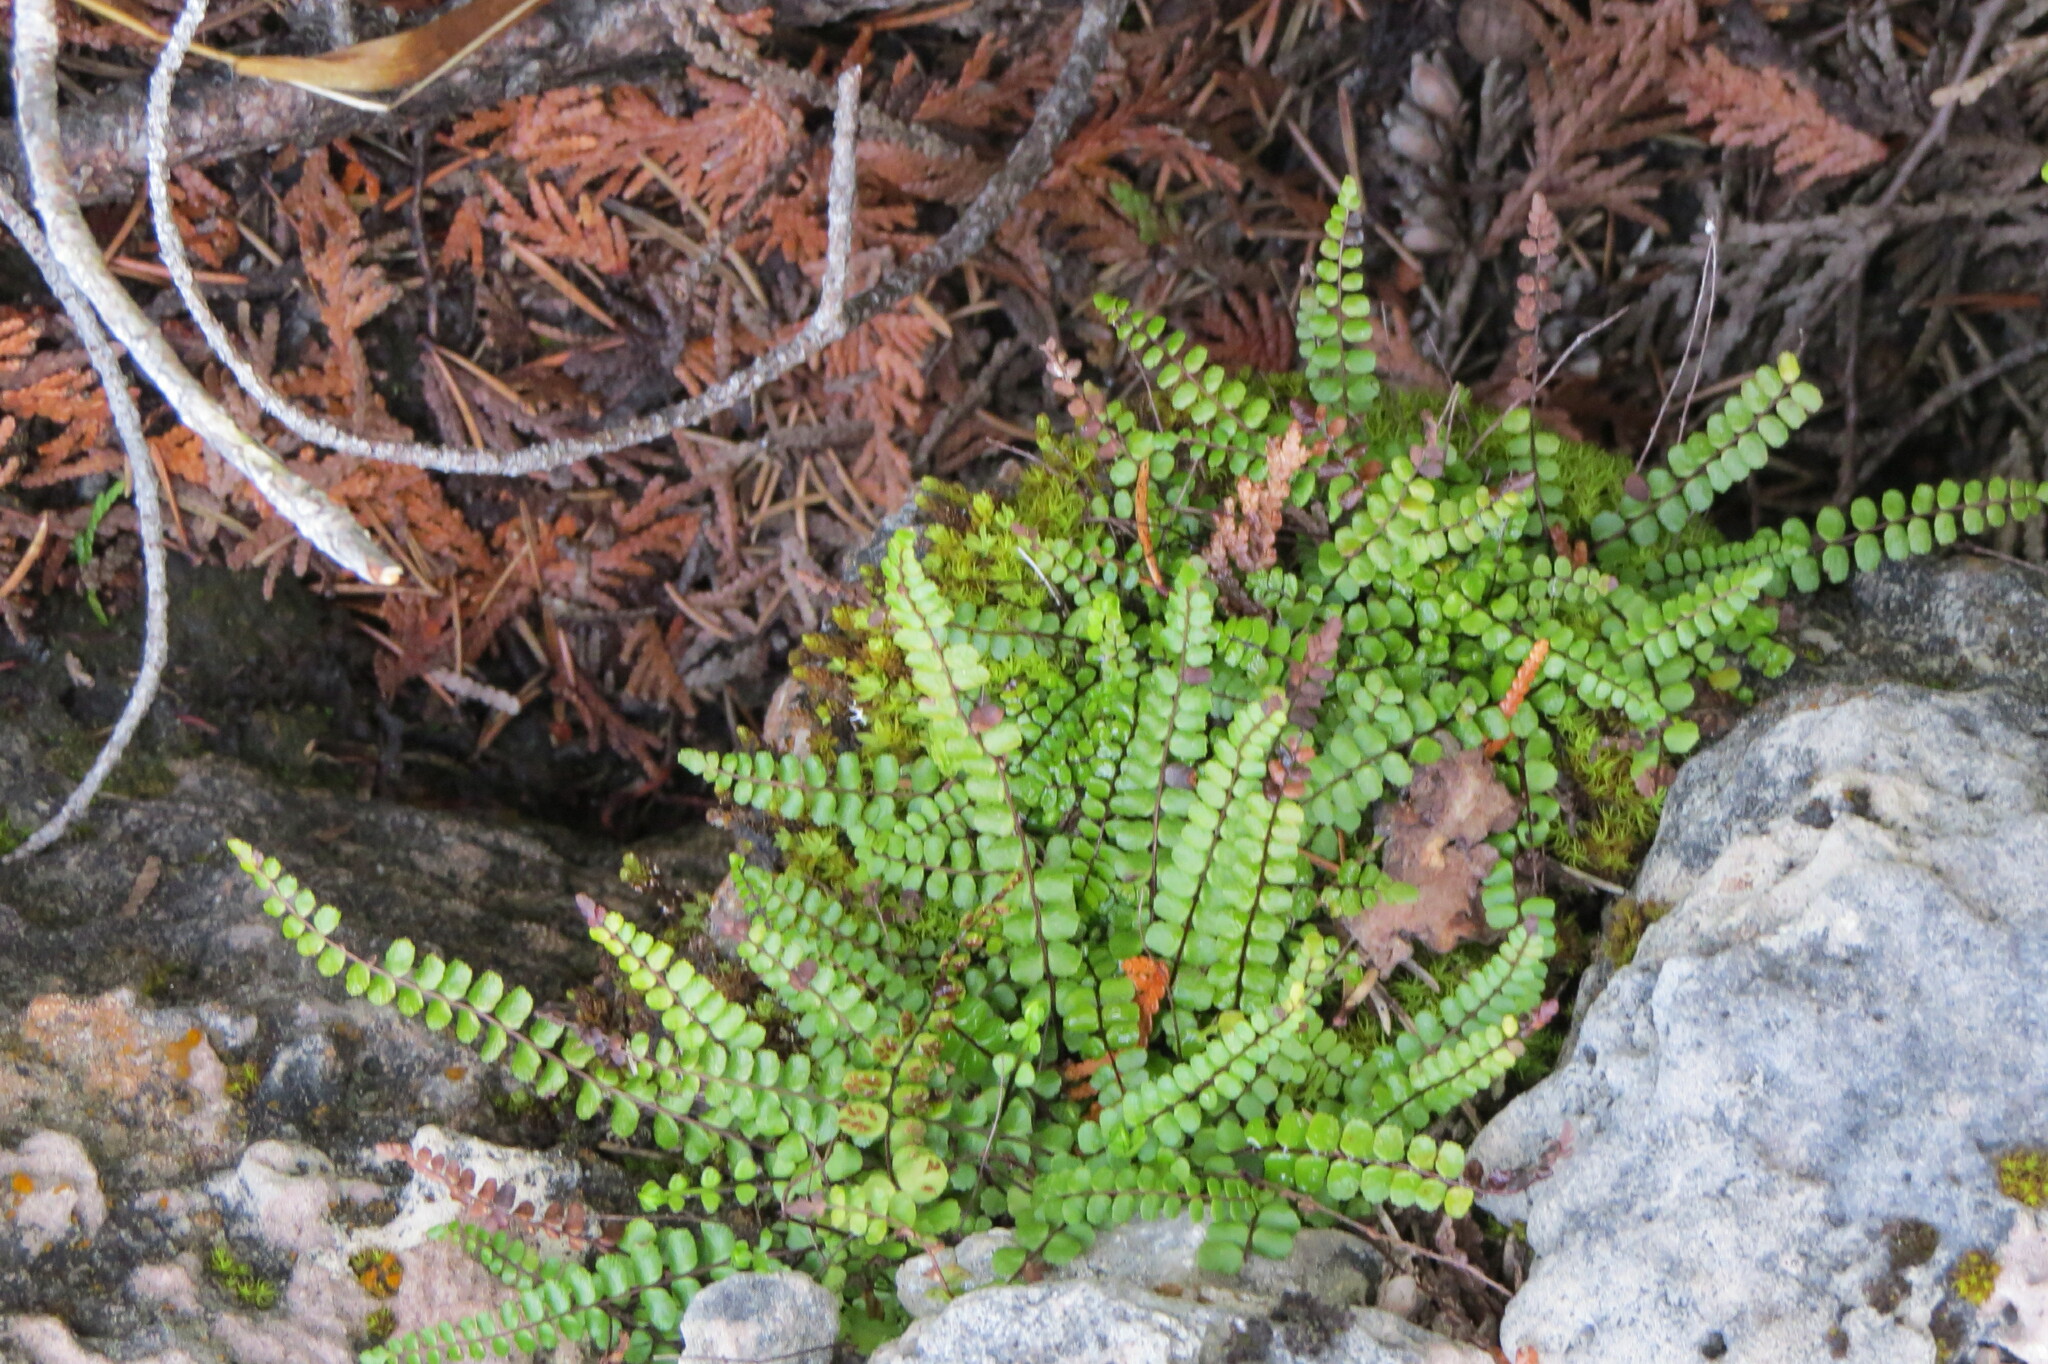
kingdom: Plantae
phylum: Tracheophyta
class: Polypodiopsida
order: Polypodiales
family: Aspleniaceae
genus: Asplenium
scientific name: Asplenium trichomanes
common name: Maidenhair spleenwort
